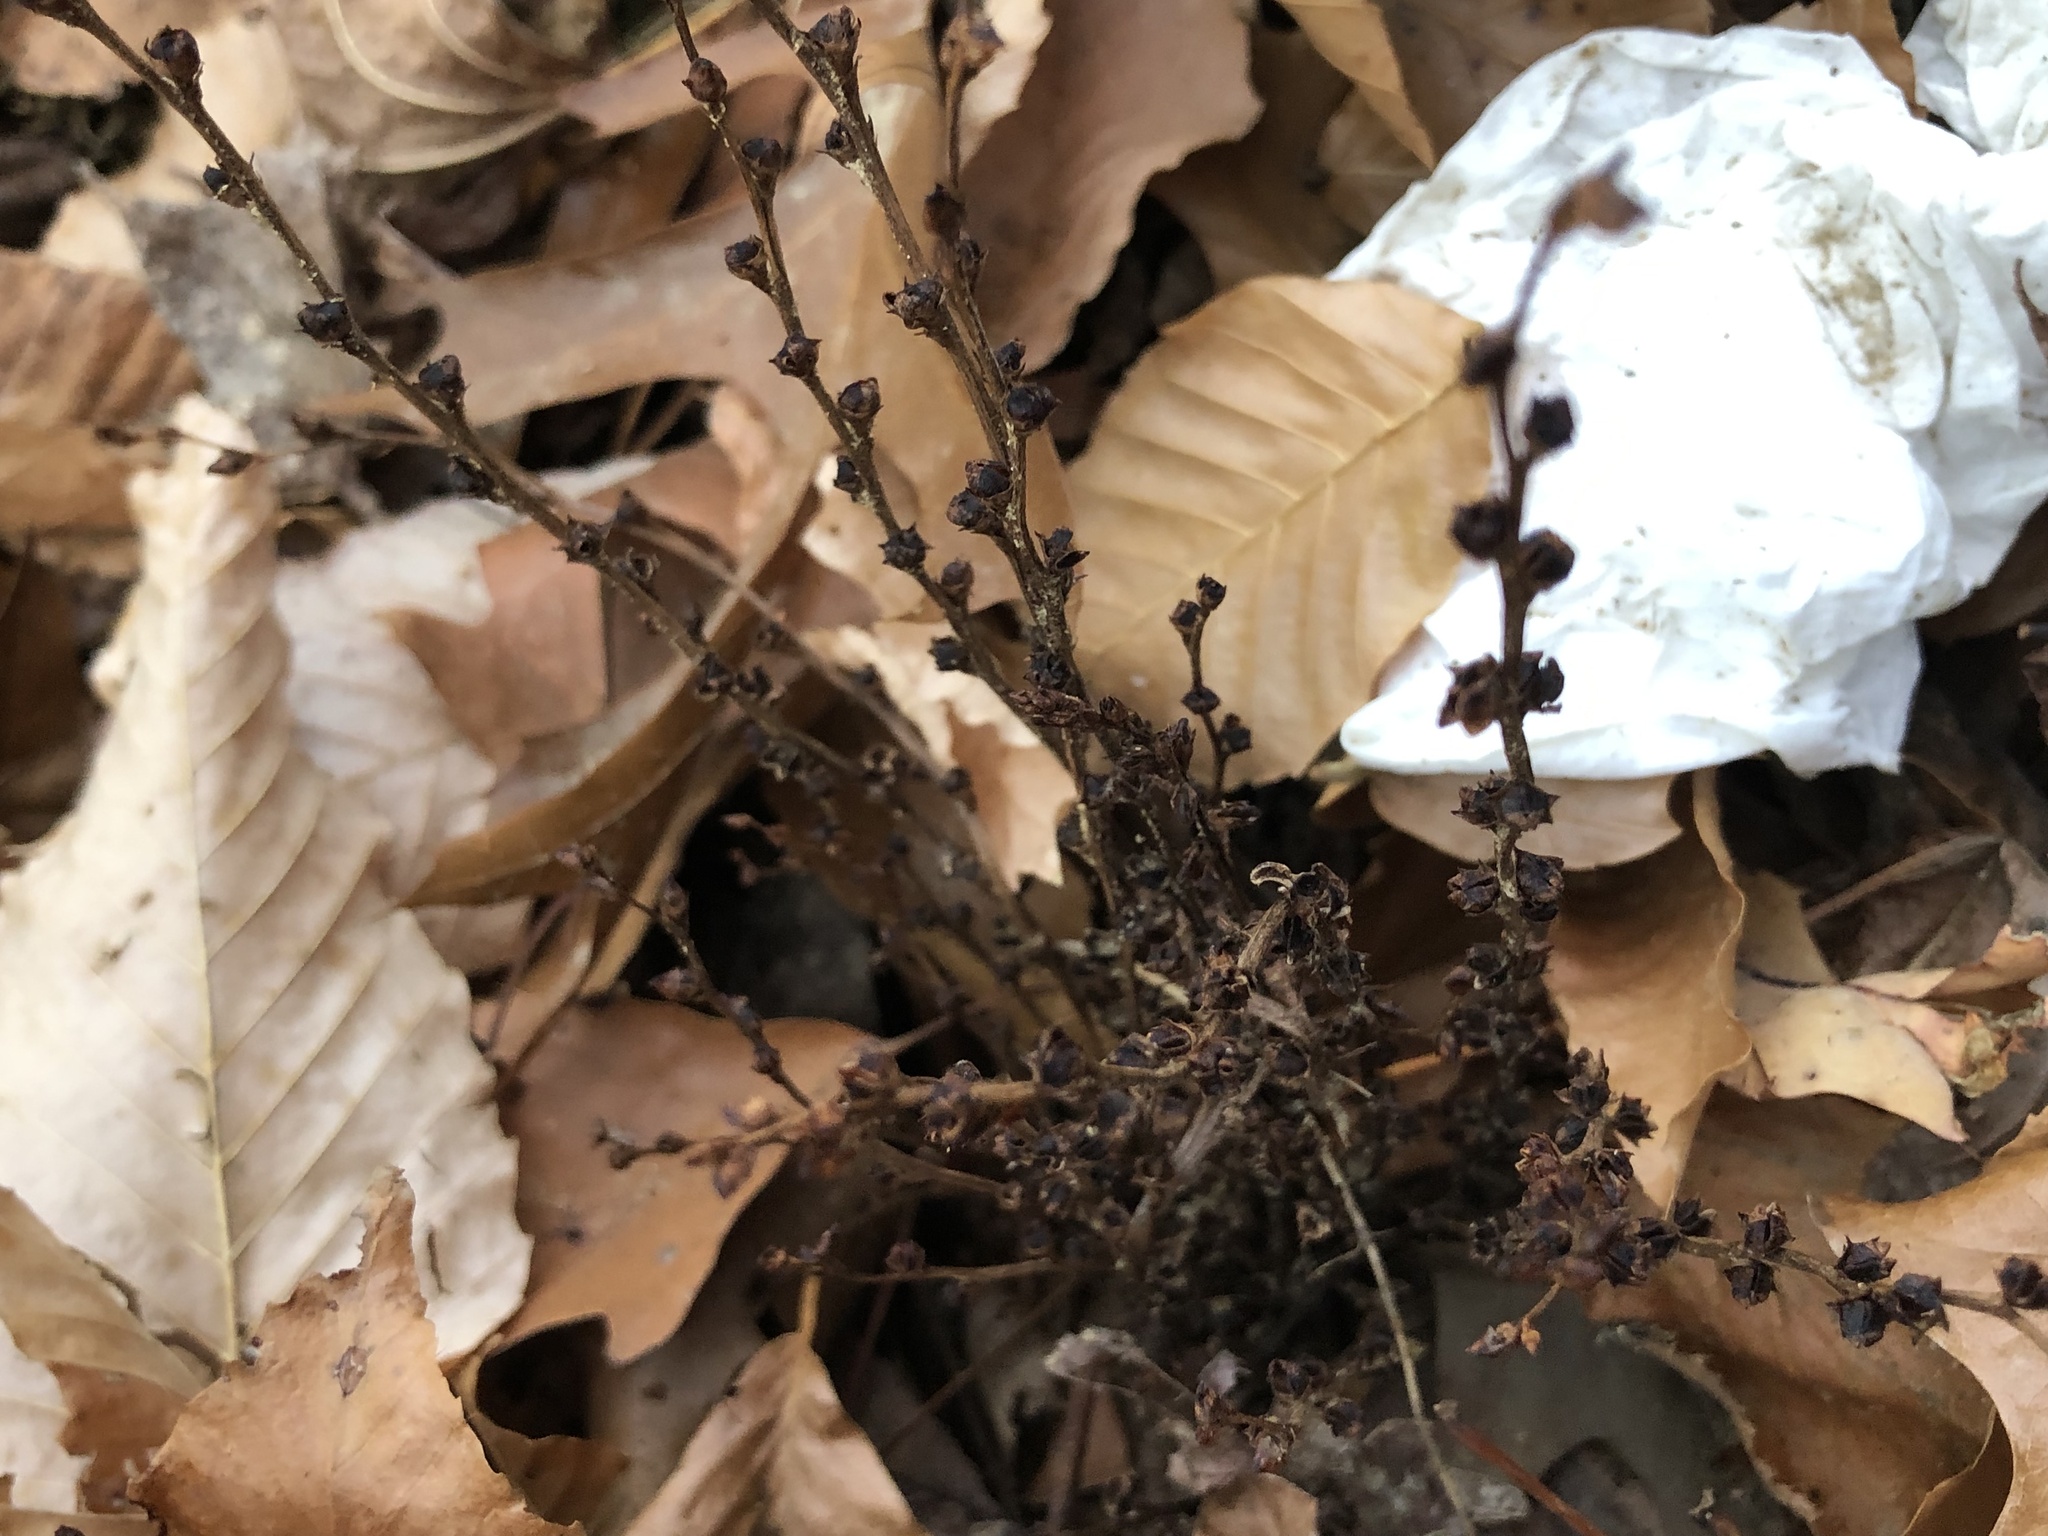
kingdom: Plantae
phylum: Tracheophyta
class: Magnoliopsida
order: Lamiales
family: Orobanchaceae
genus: Epifagus
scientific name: Epifagus virginiana
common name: Beechdrops
